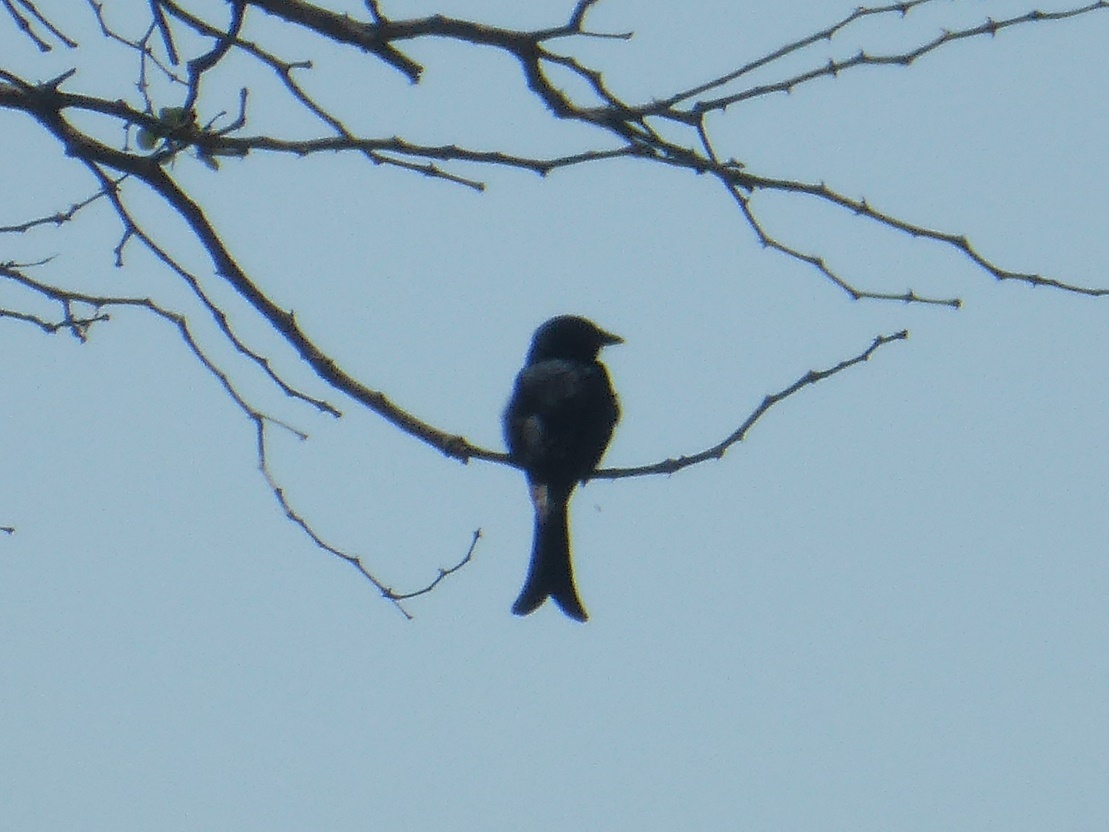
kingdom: Animalia
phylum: Chordata
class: Aves
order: Passeriformes
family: Dicruridae
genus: Dicrurus
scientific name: Dicrurus adsimilis
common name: Fork-tailed drongo
